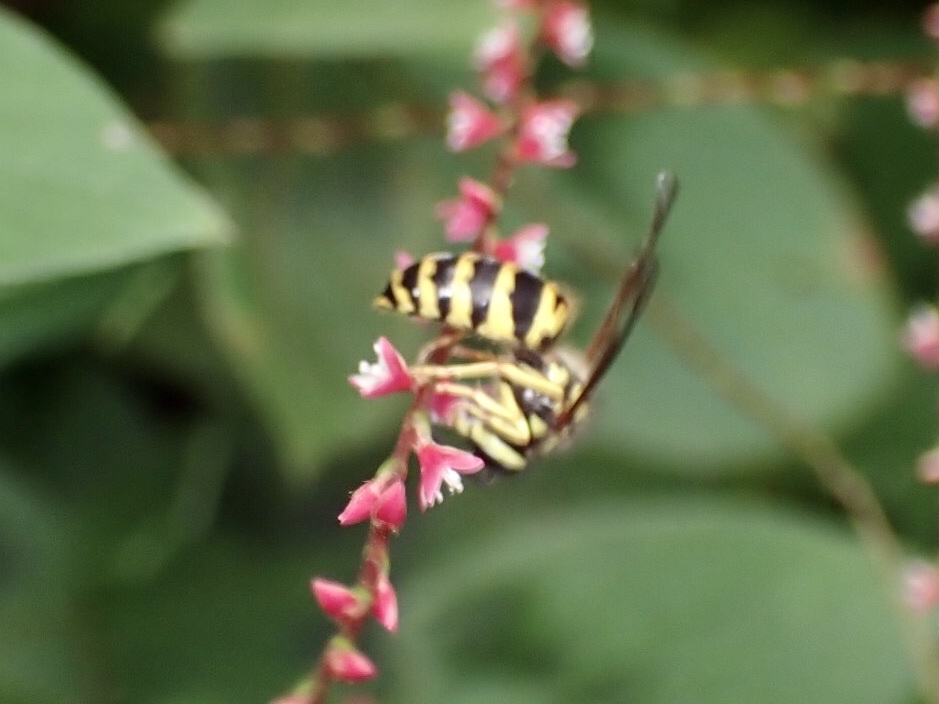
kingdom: Animalia
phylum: Arthropoda
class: Insecta
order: Hymenoptera
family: Vespidae
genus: Vespula
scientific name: Vespula maculifrons
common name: Eastern yellowjacket
